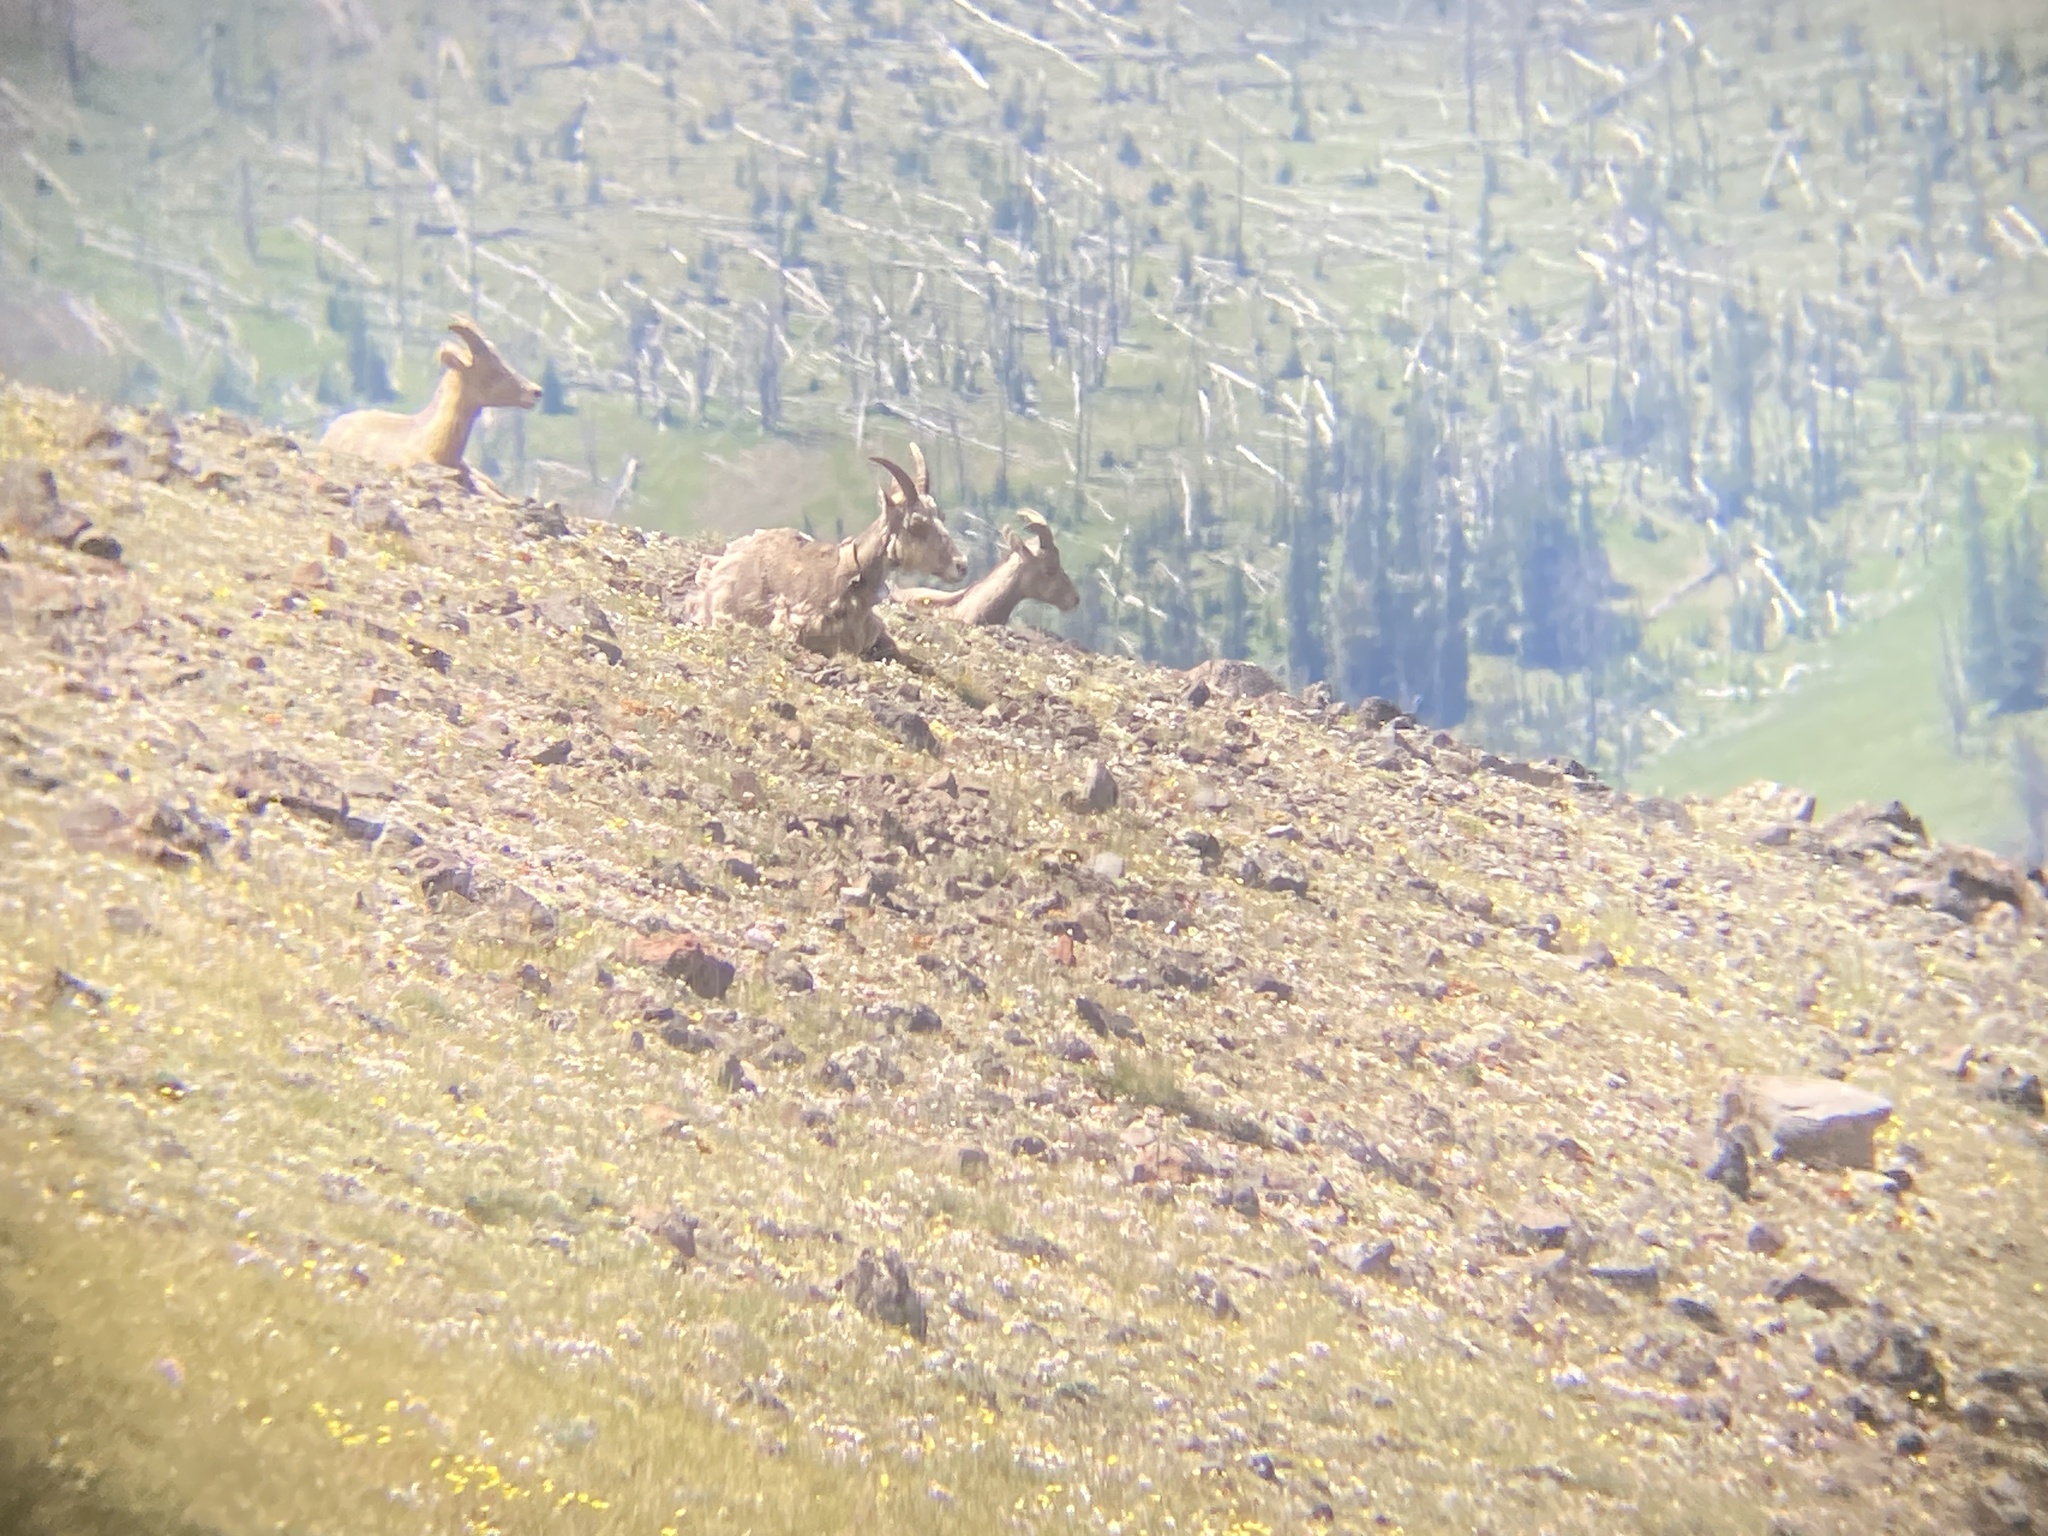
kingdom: Animalia
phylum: Chordata
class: Mammalia
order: Artiodactyla
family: Bovidae
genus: Ovis
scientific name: Ovis canadensis
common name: Bighorn sheep
